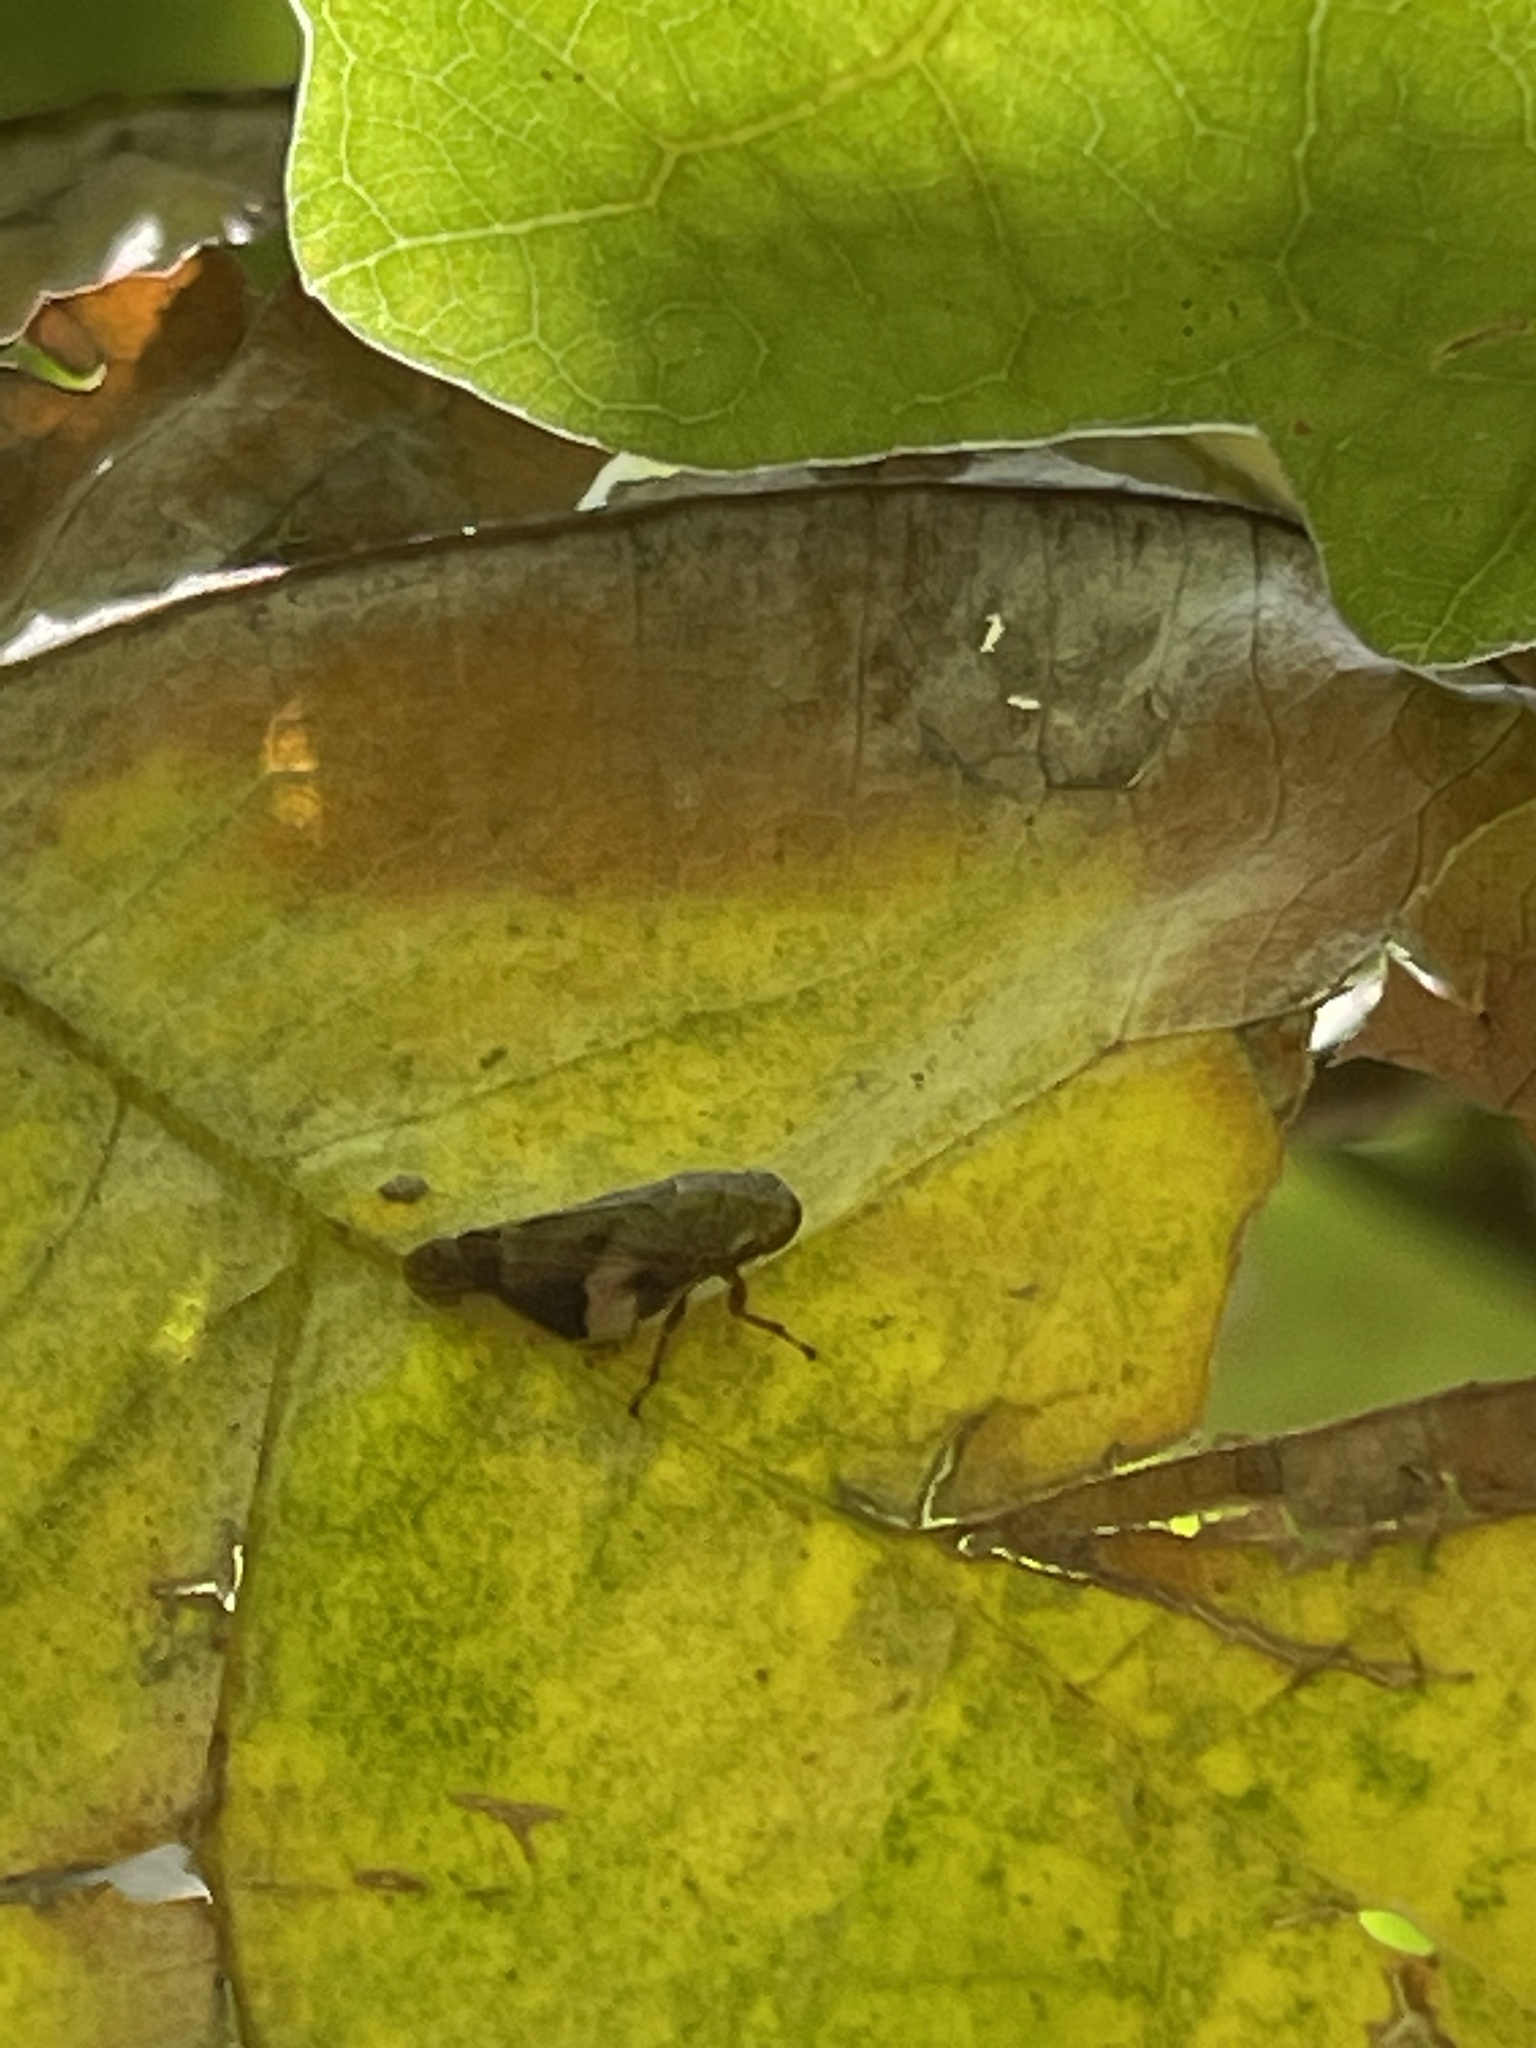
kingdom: Animalia
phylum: Arthropoda
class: Insecta
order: Hemiptera
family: Aphrophoridae
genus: Aphrophora
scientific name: Aphrophora alni
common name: European alder spittlebug
